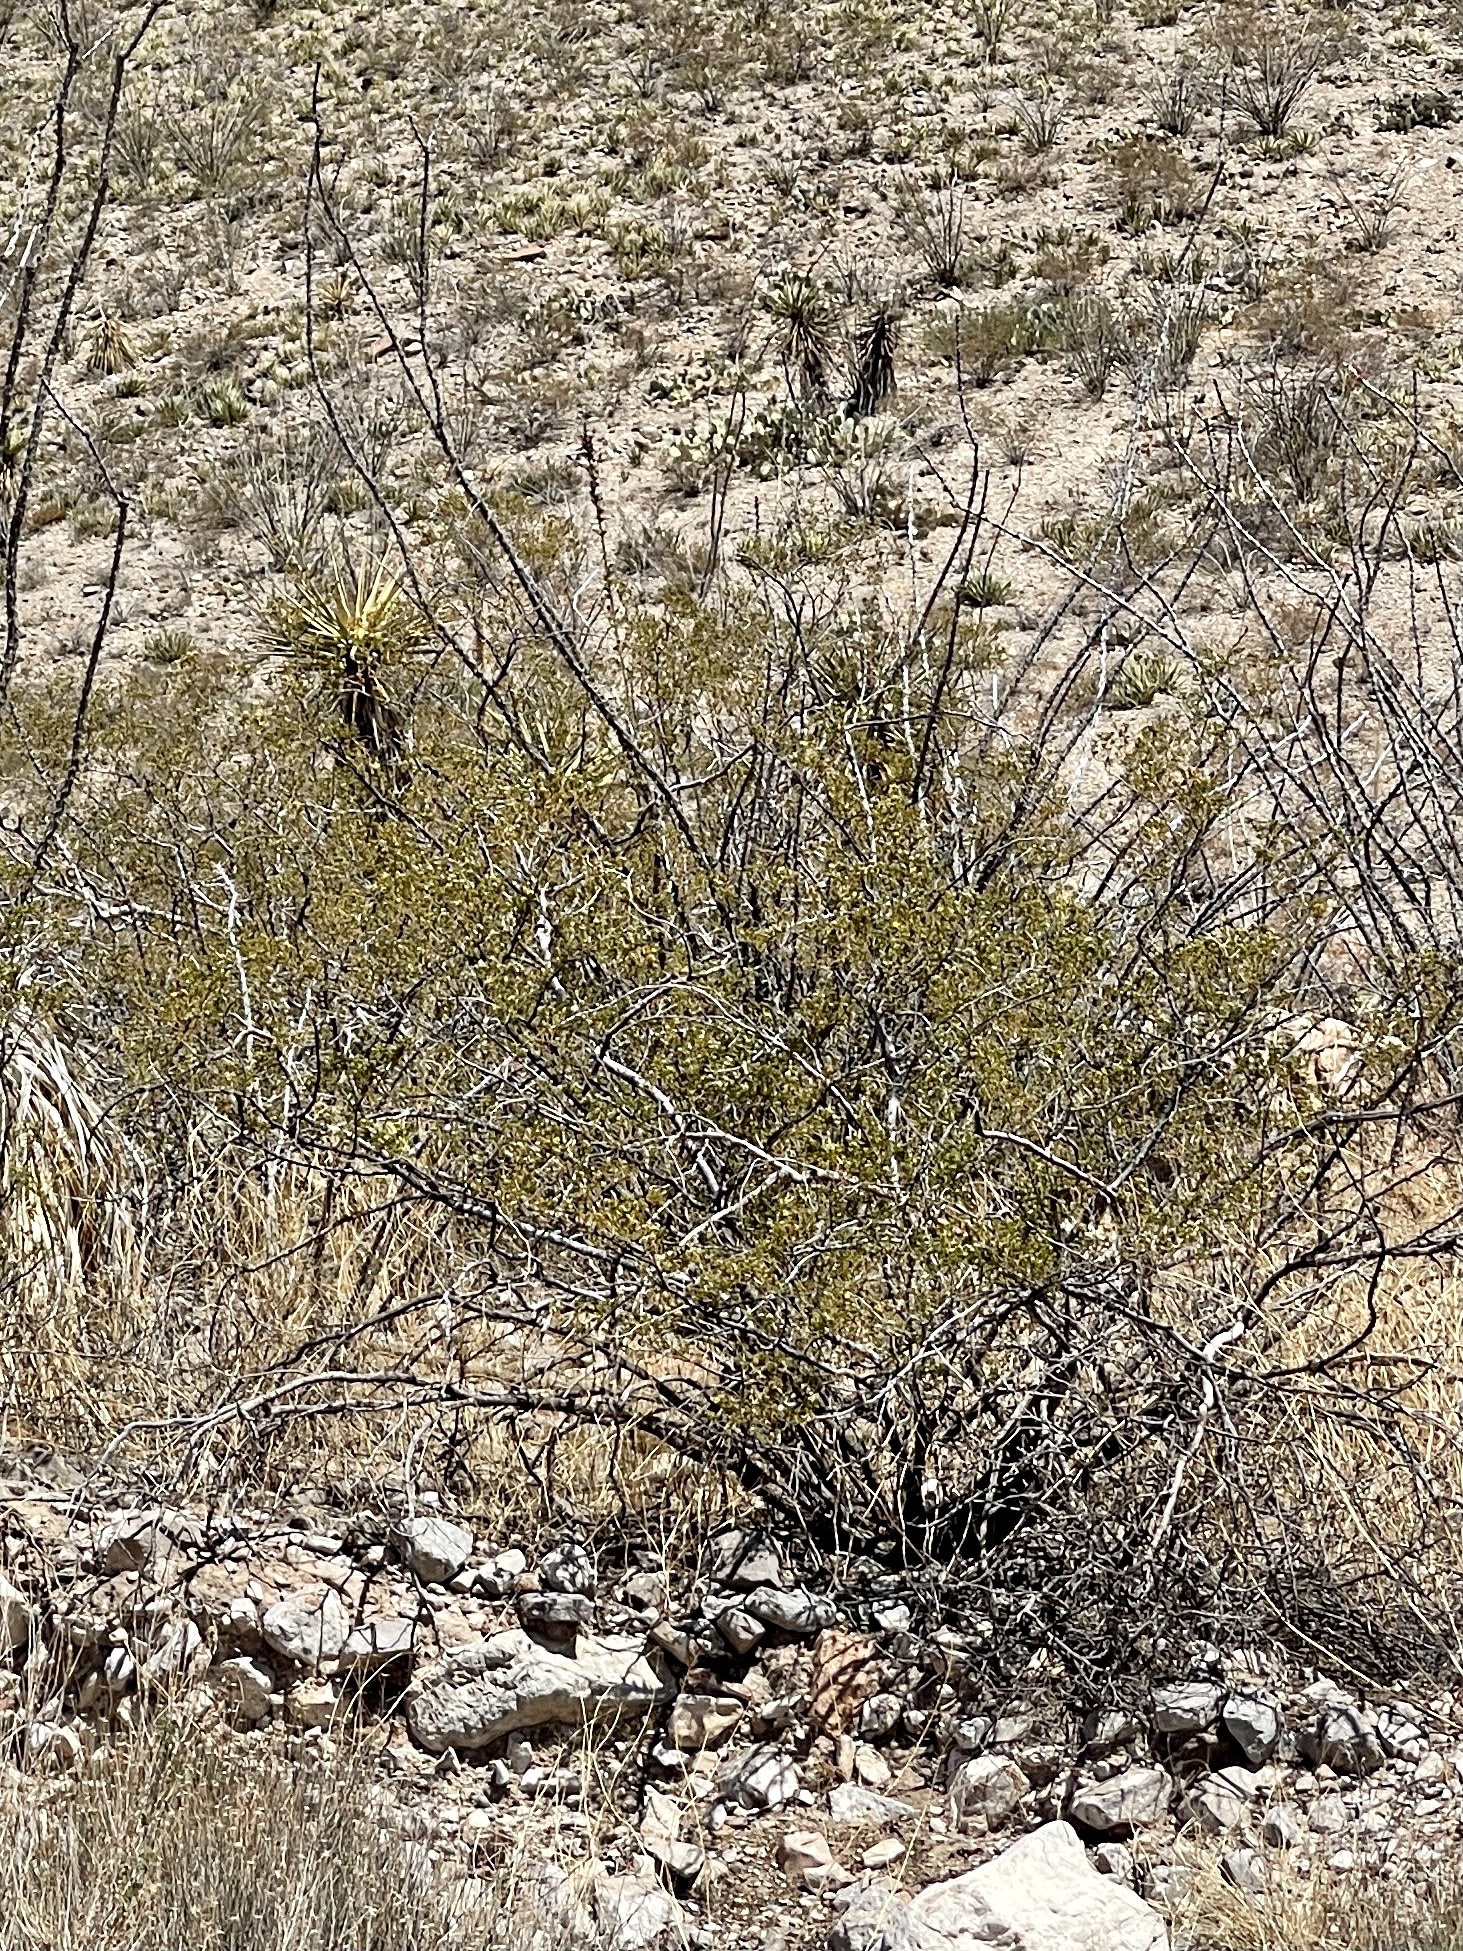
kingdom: Plantae
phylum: Tracheophyta
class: Magnoliopsida
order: Zygophyllales
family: Zygophyllaceae
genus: Larrea
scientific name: Larrea tridentata
